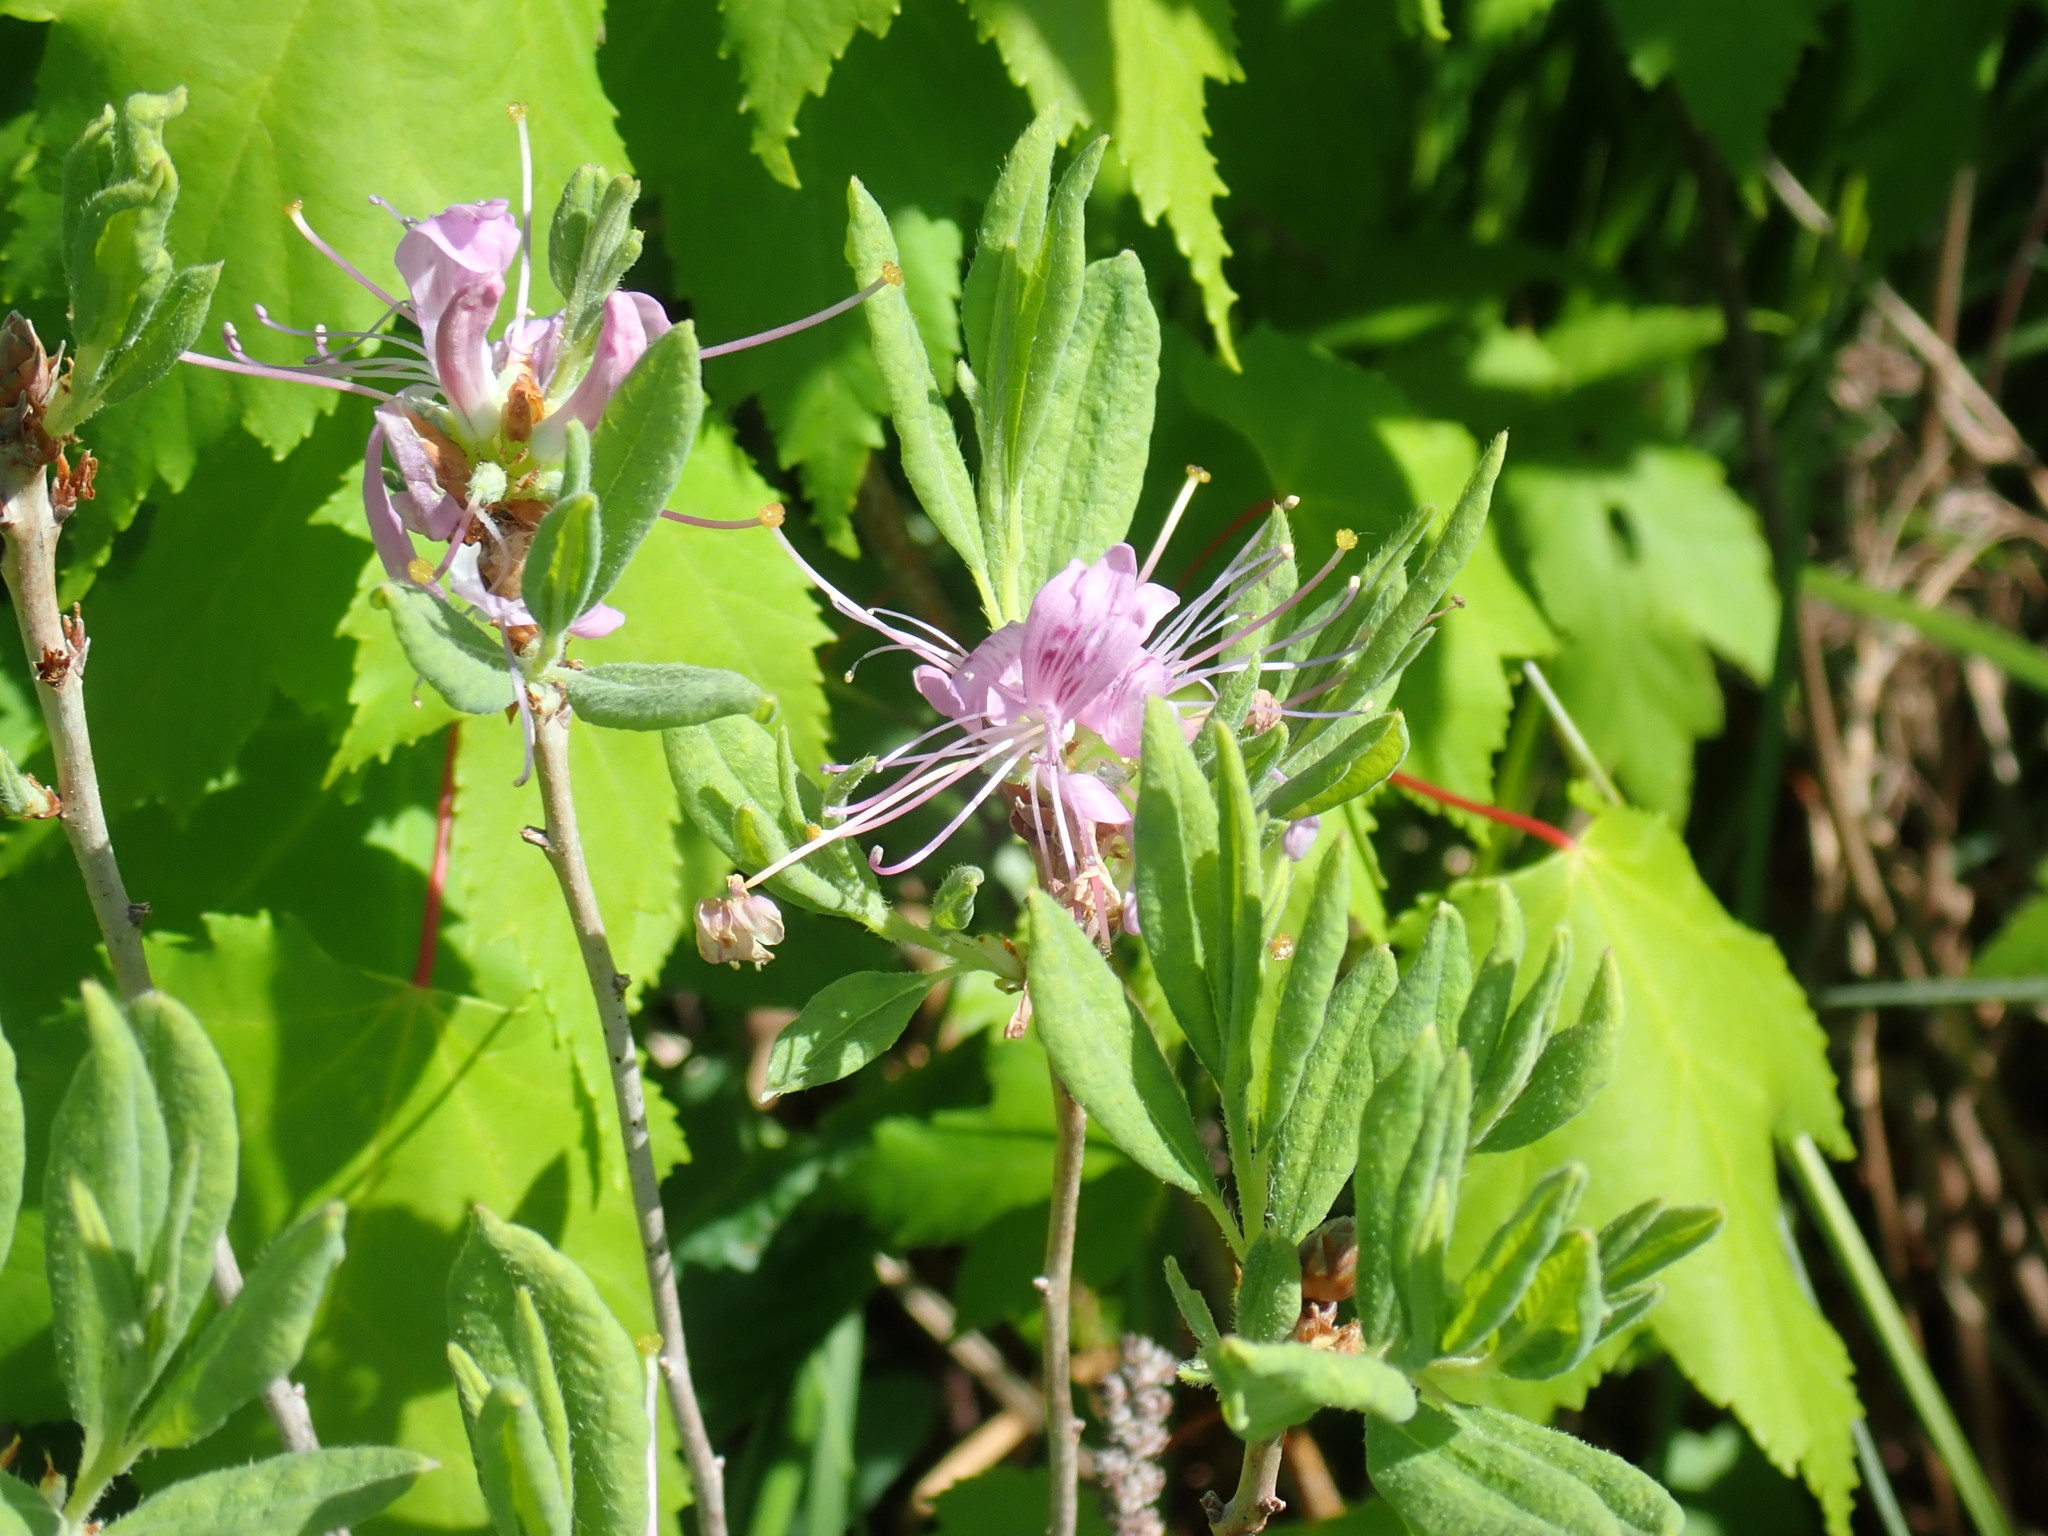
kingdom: Plantae
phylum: Tracheophyta
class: Magnoliopsida
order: Ericales
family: Ericaceae
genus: Rhododendron
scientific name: Rhododendron canadense
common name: Rhodora
